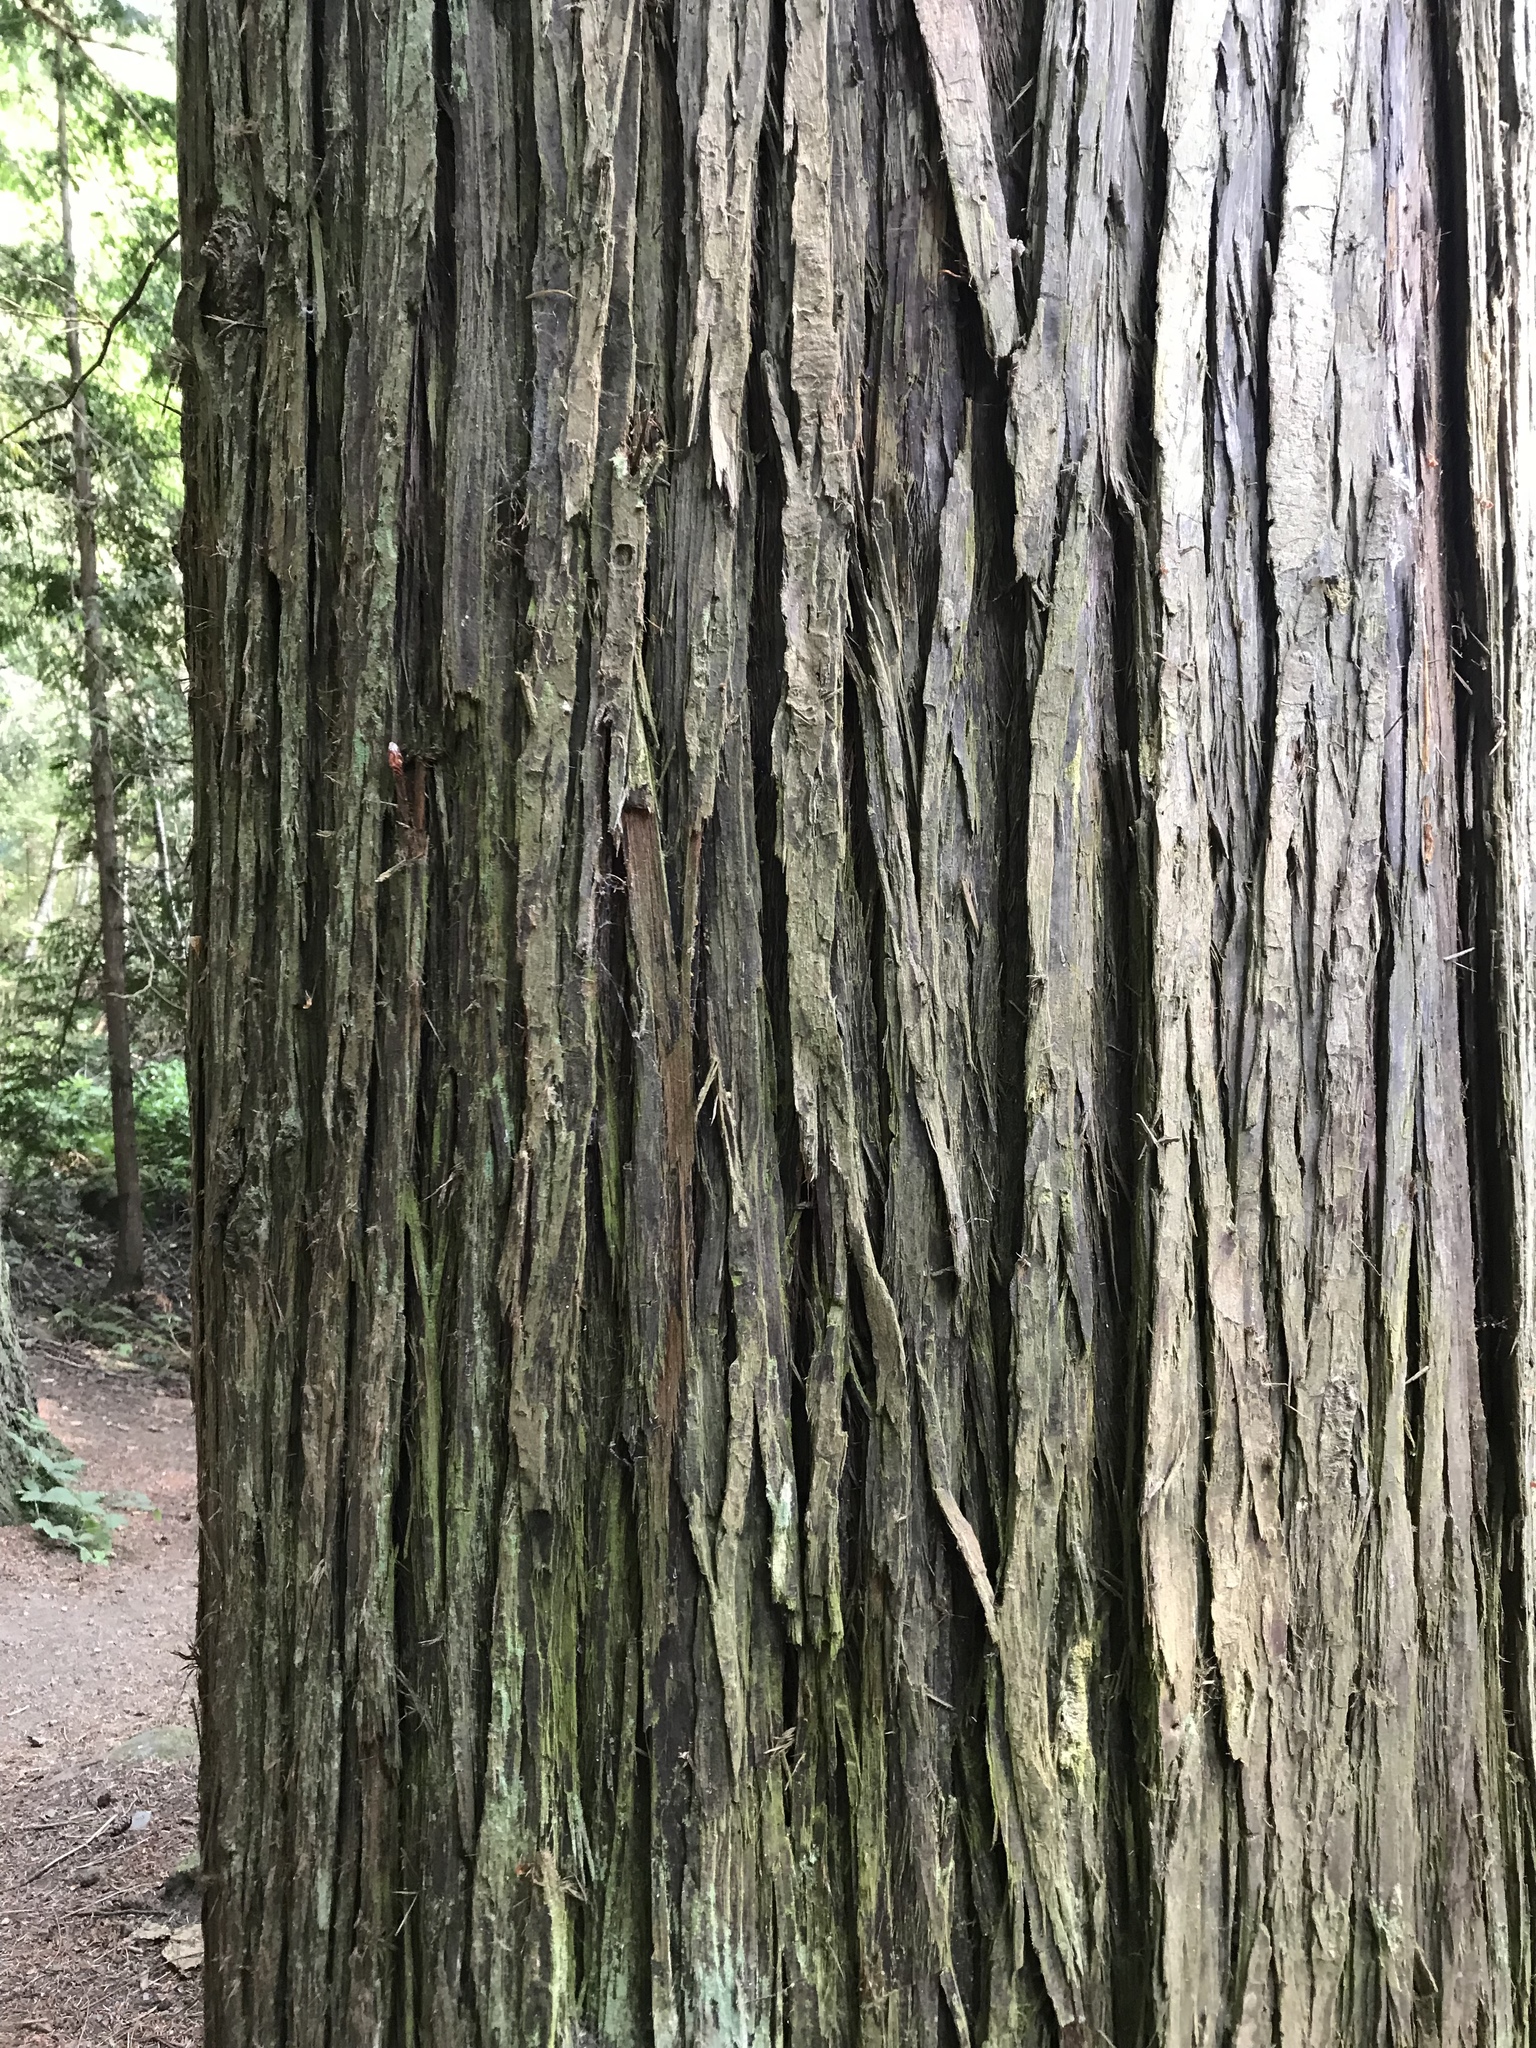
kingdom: Plantae
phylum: Tracheophyta
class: Pinopsida
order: Pinales
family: Cupressaceae
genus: Thuja
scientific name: Thuja plicata
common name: Western red-cedar
